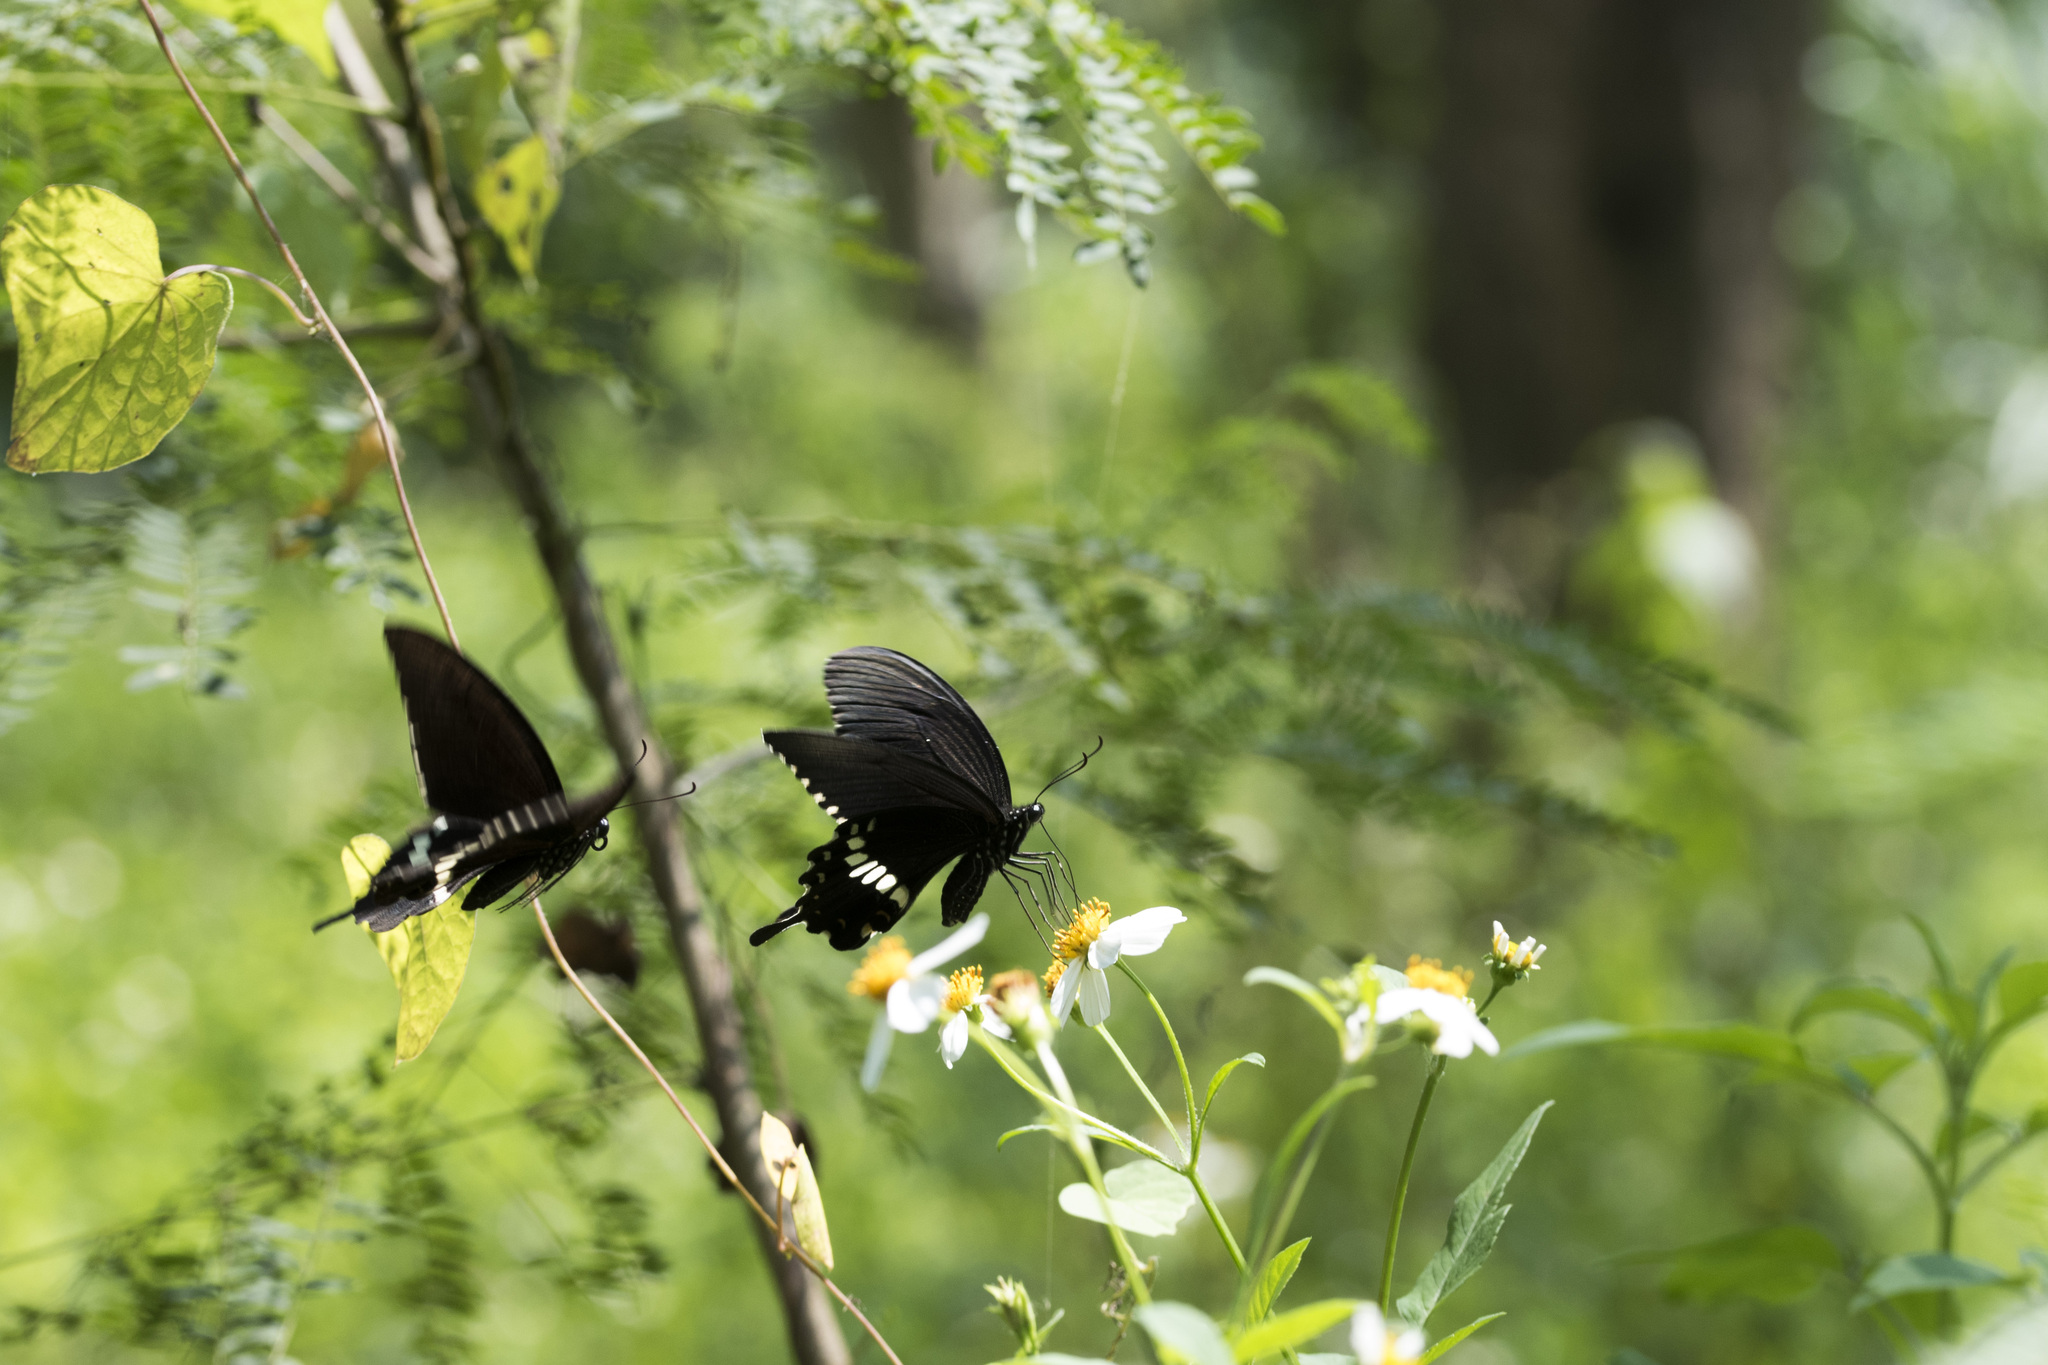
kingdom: Animalia
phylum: Arthropoda
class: Insecta
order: Lepidoptera
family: Papilionidae
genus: Papilio
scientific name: Papilio polytes
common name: Common mormon
